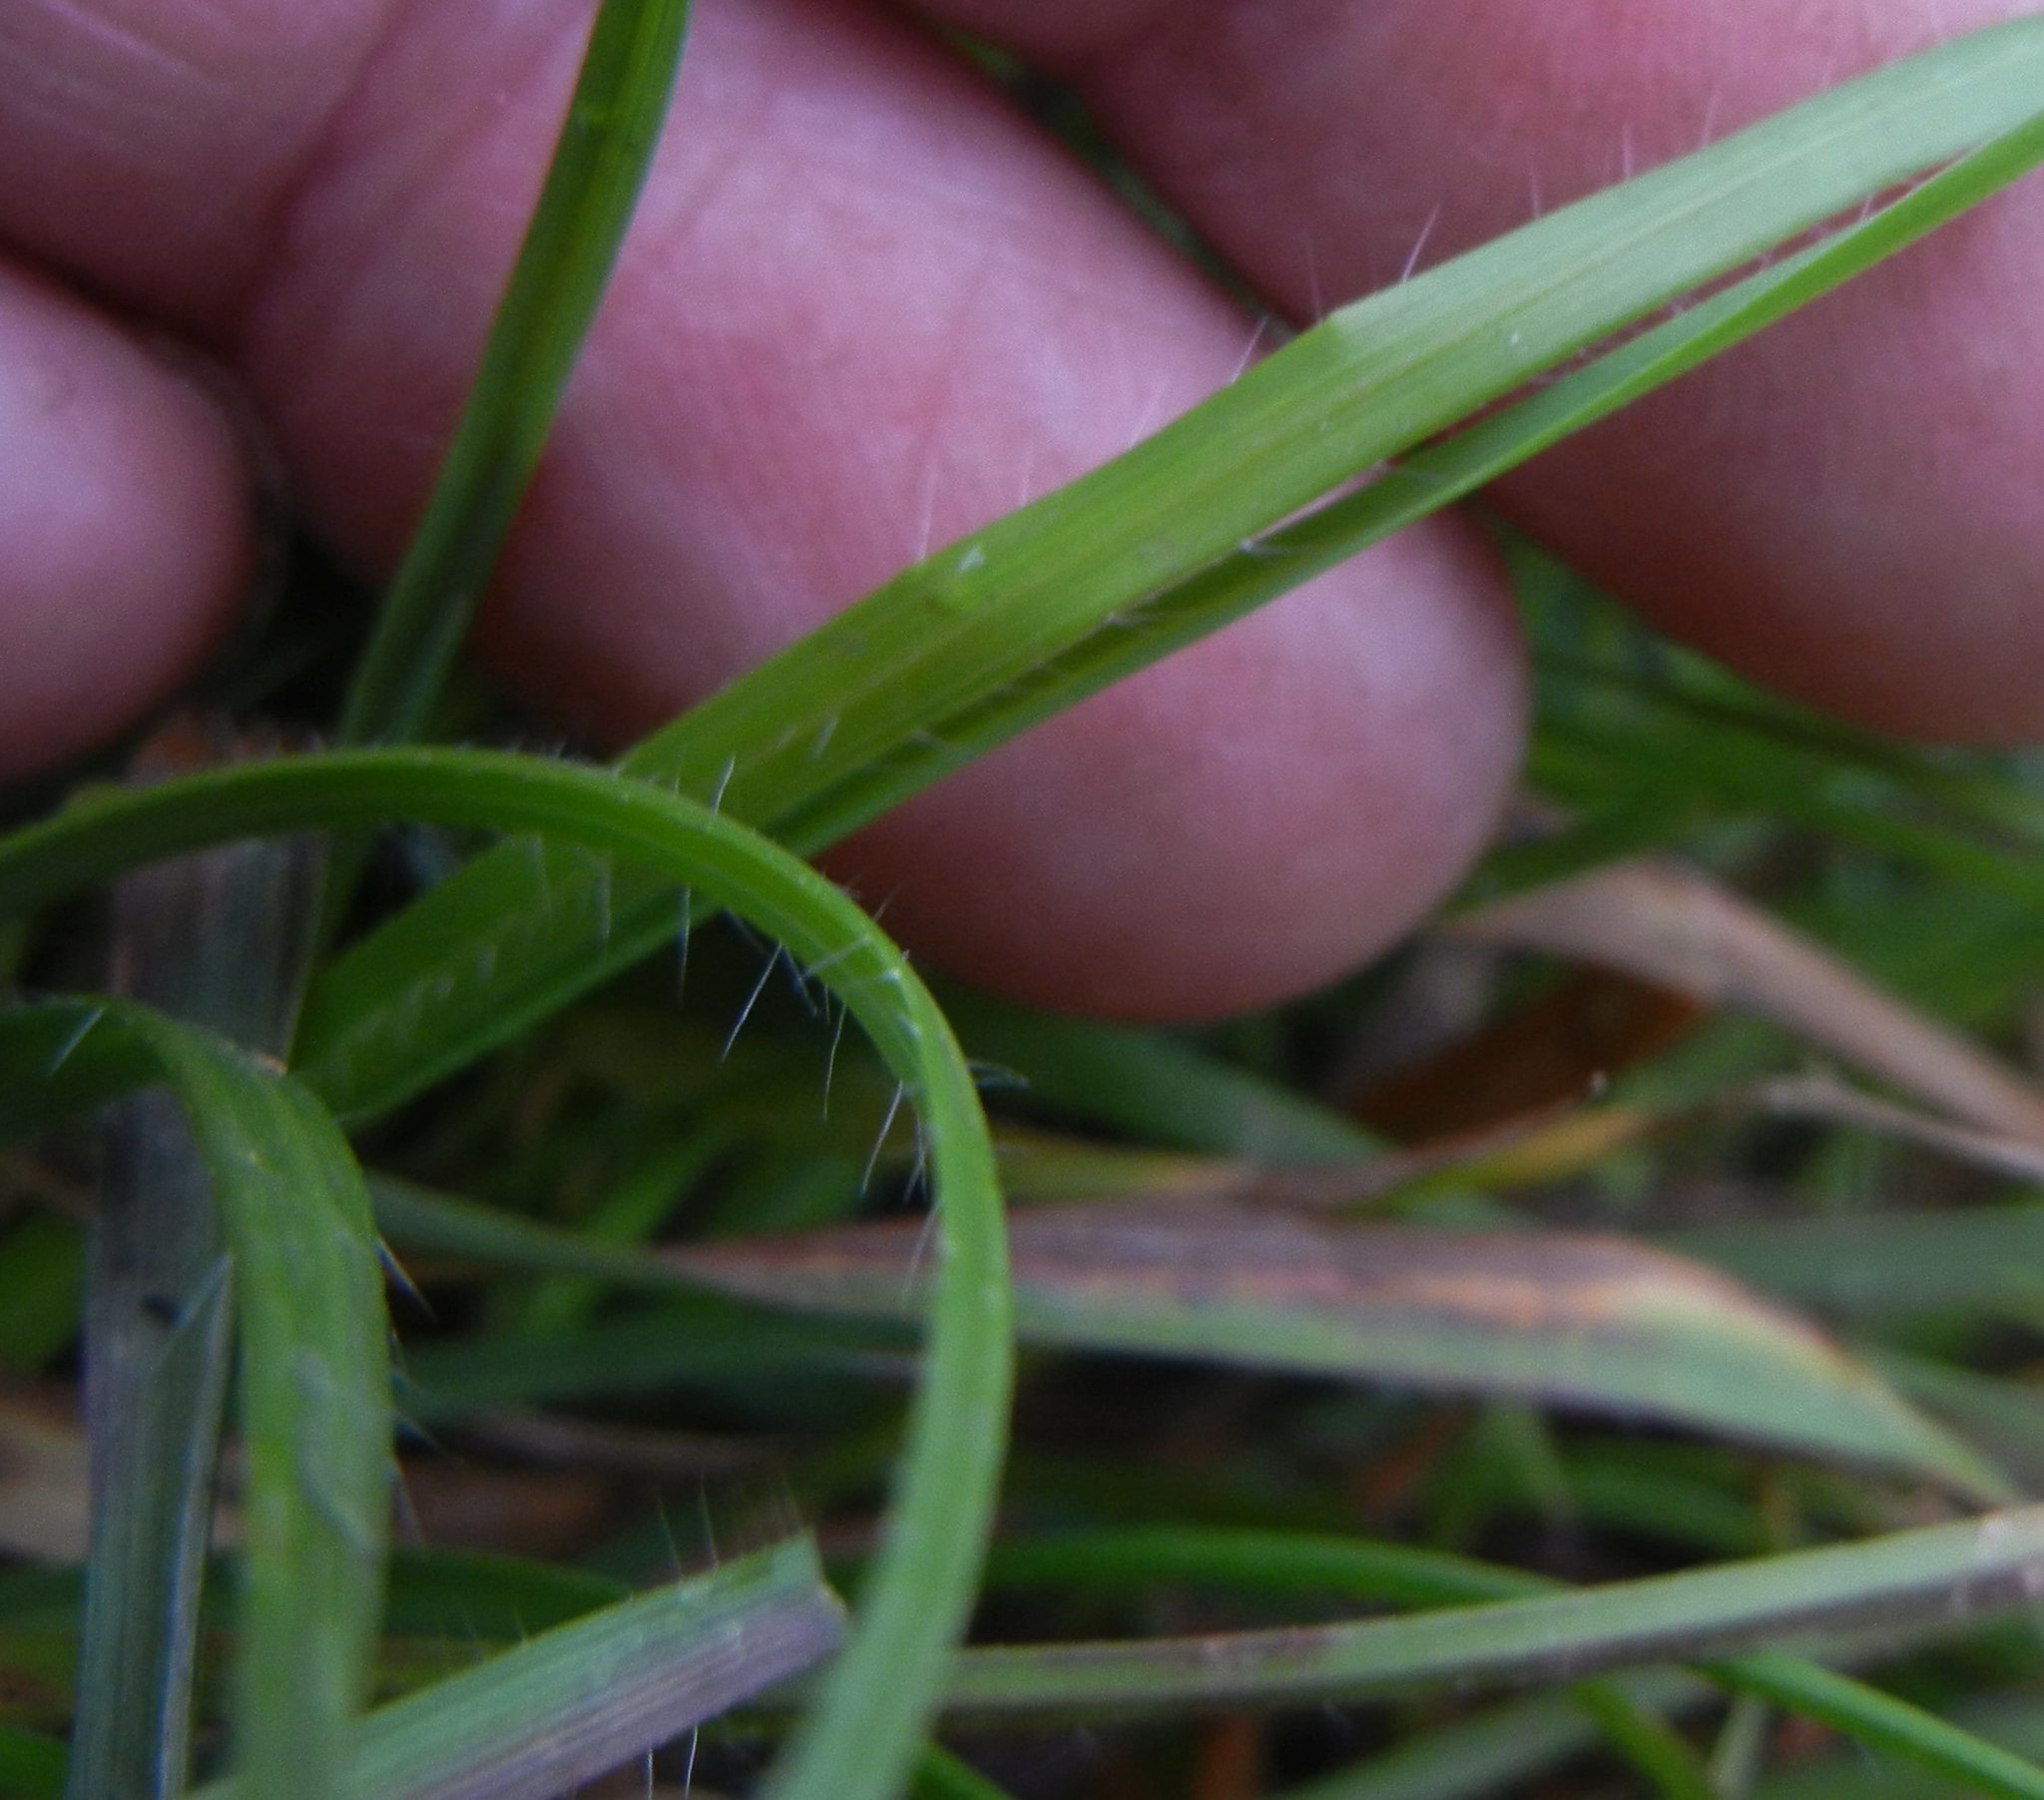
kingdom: Plantae
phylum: Tracheophyta
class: Liliopsida
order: Poales
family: Poaceae
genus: Bromus
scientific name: Bromus erectus
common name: Erect brome
